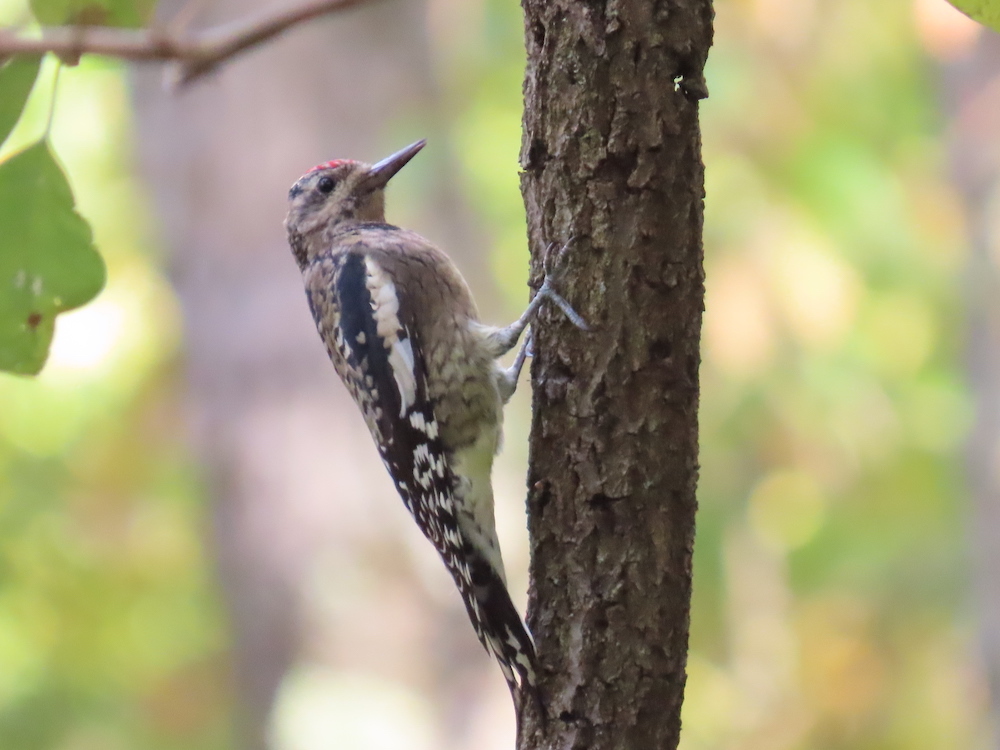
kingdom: Animalia
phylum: Chordata
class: Aves
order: Piciformes
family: Picidae
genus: Sphyrapicus
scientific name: Sphyrapicus varius
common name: Yellow-bellied sapsucker
